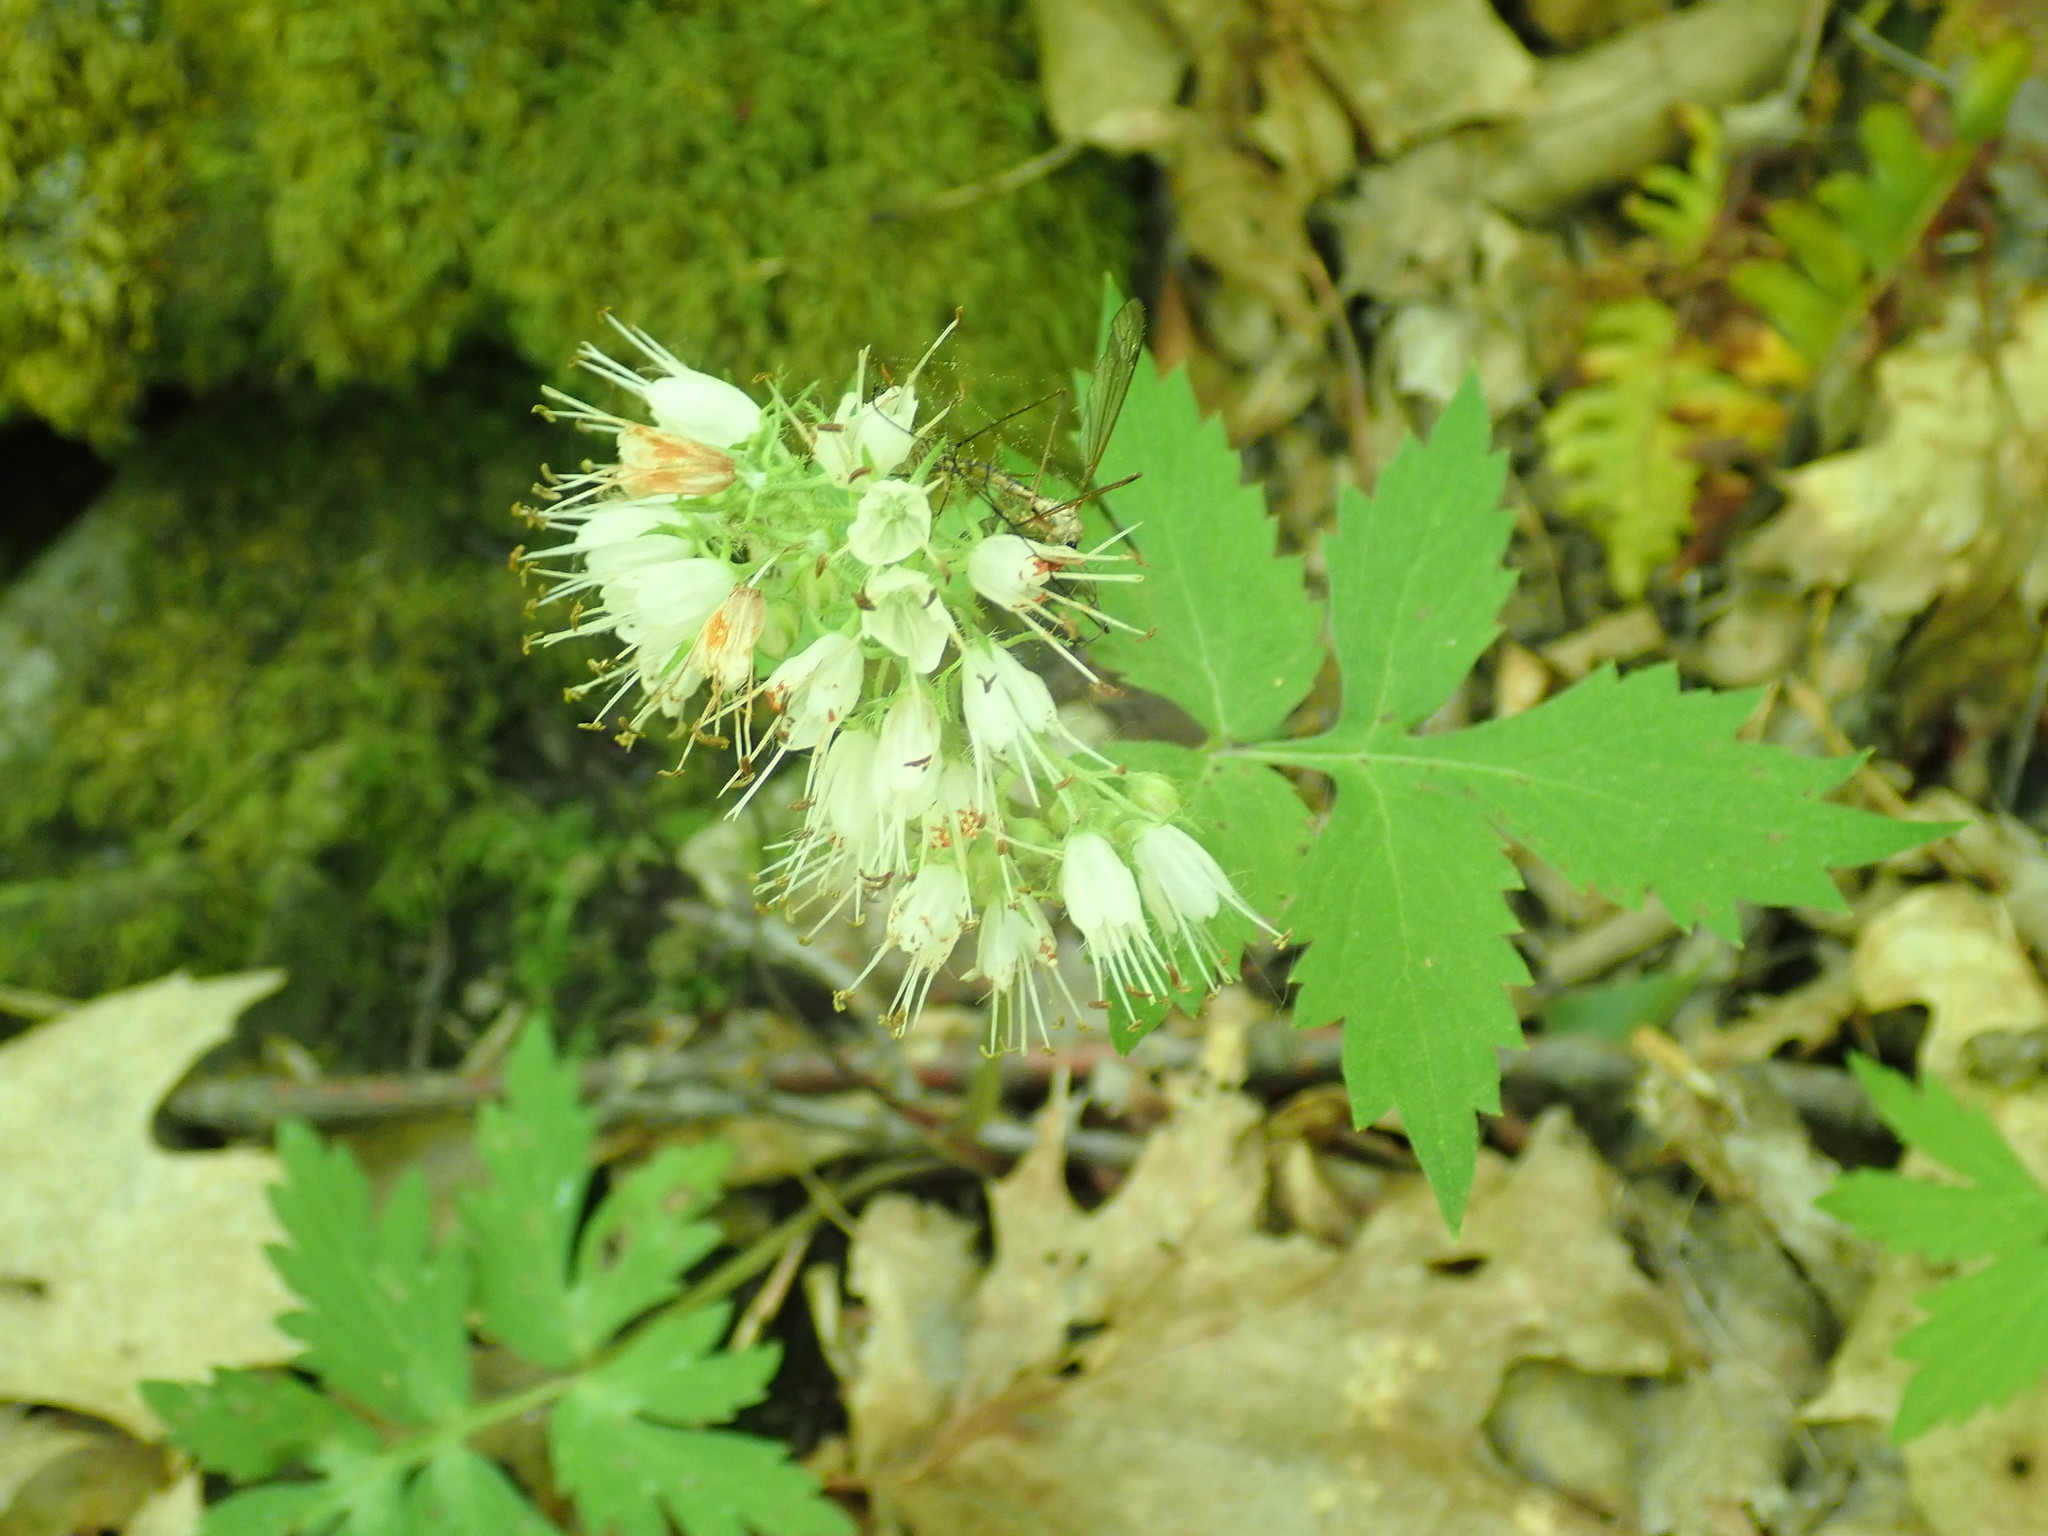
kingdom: Plantae
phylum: Tracheophyta
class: Magnoliopsida
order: Boraginales
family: Hydrophyllaceae
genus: Hydrophyllum
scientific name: Hydrophyllum virginianum
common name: Virginia waterleaf
